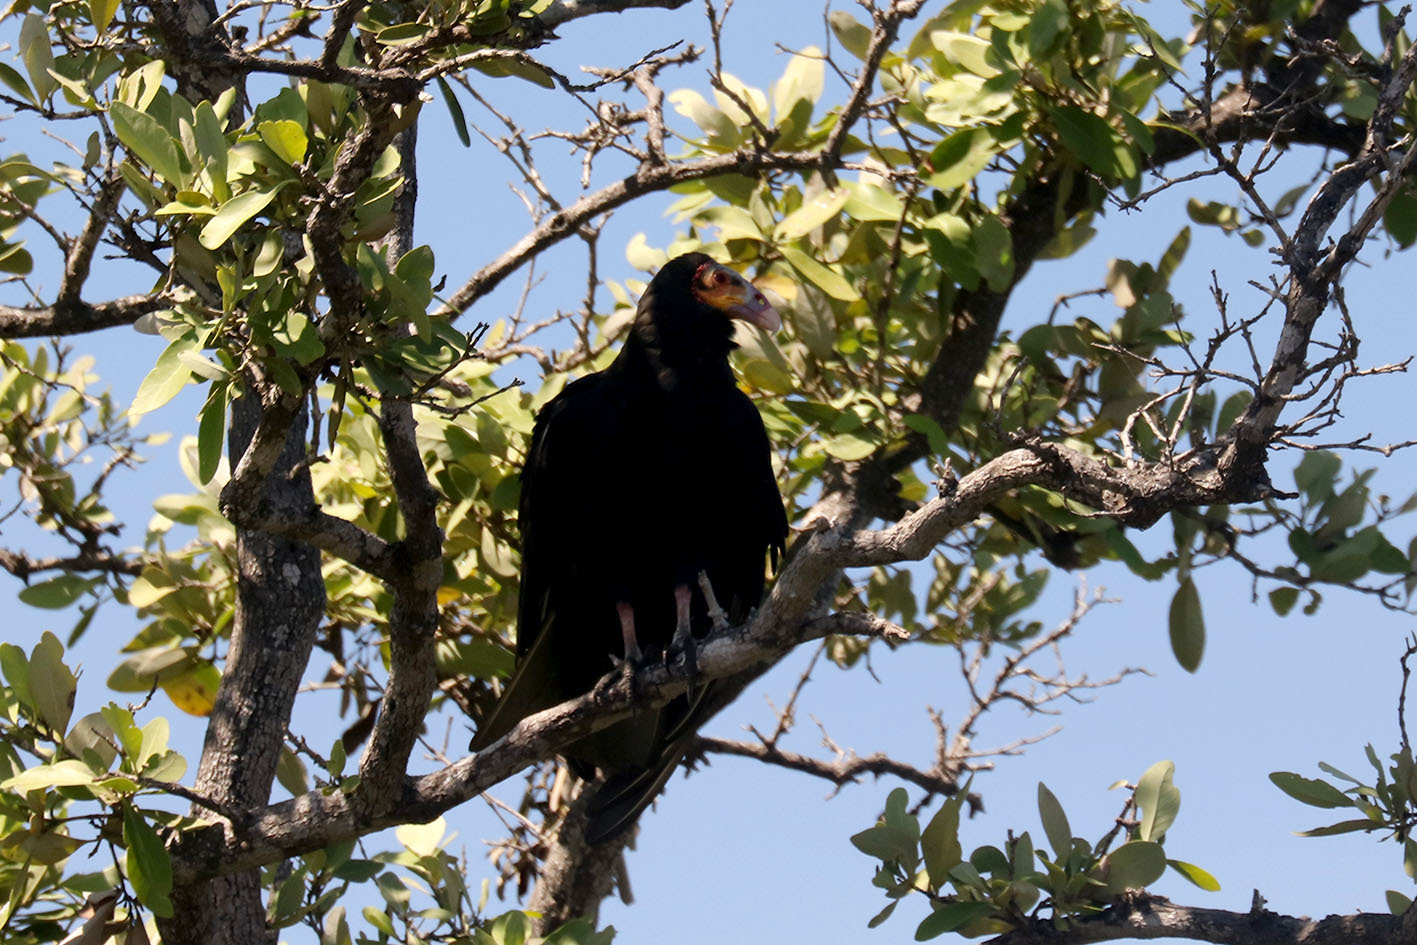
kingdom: Animalia
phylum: Chordata
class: Aves
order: Accipitriformes
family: Cathartidae
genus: Cathartes
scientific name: Cathartes burrovianus
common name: Lesser yellow-headed vulture
